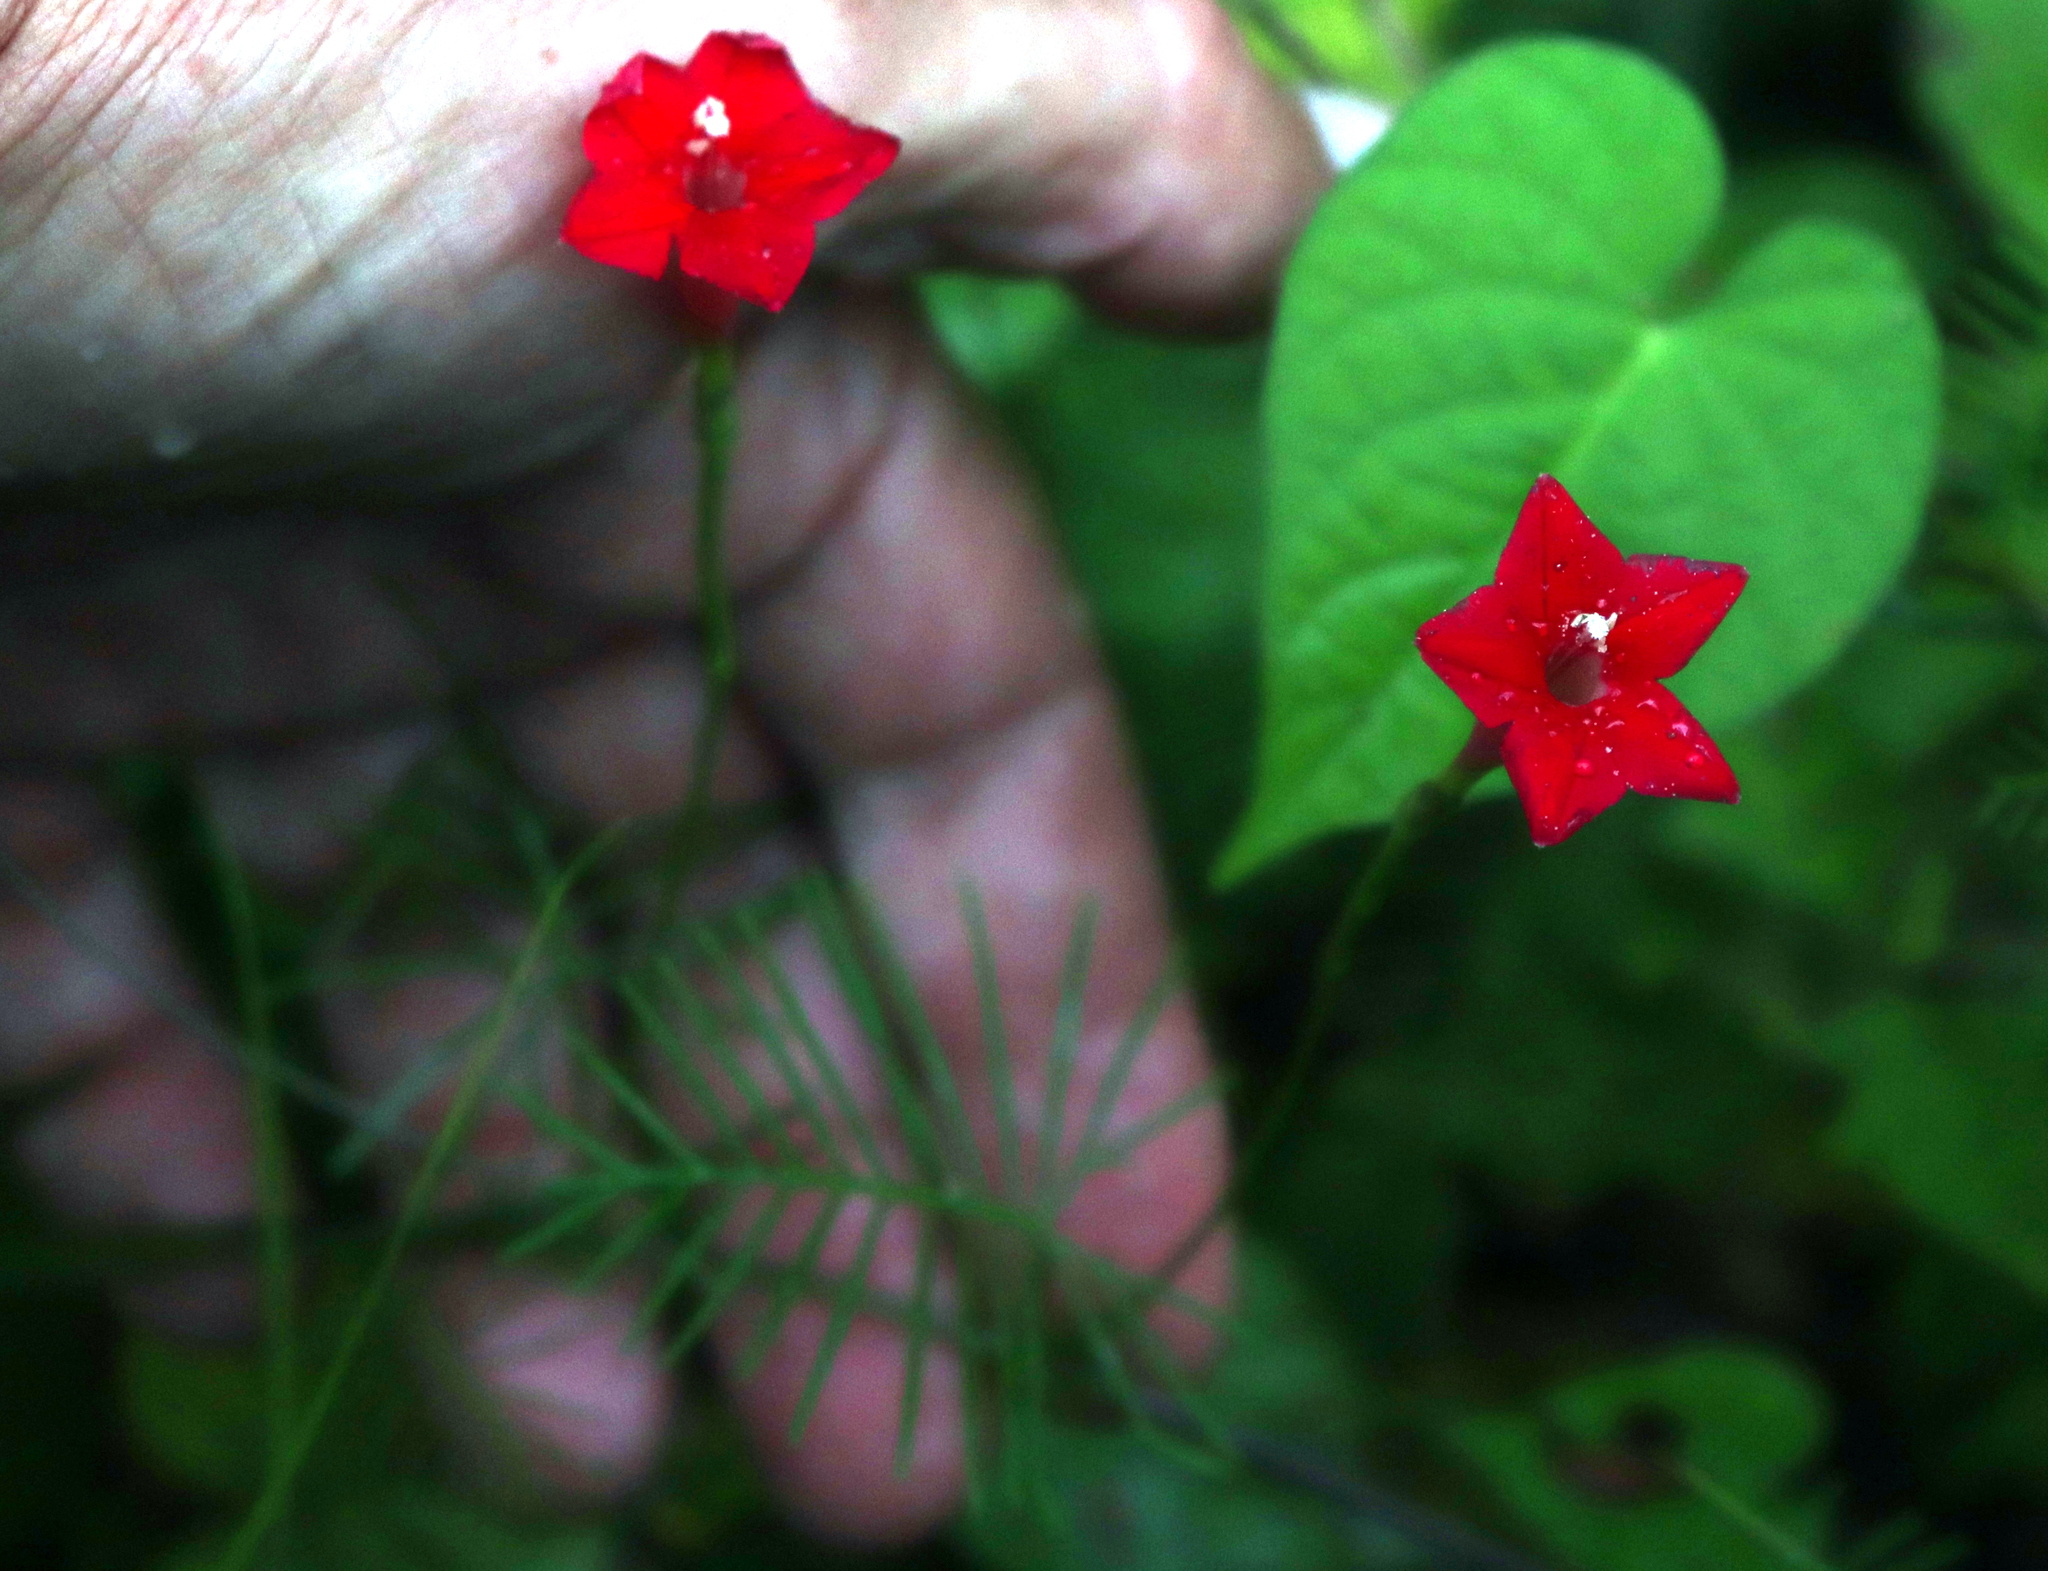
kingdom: Plantae
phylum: Tracheophyta
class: Magnoliopsida
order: Solanales
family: Convolvulaceae
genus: Ipomoea
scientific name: Ipomoea quamoclit
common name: Cypress vine
